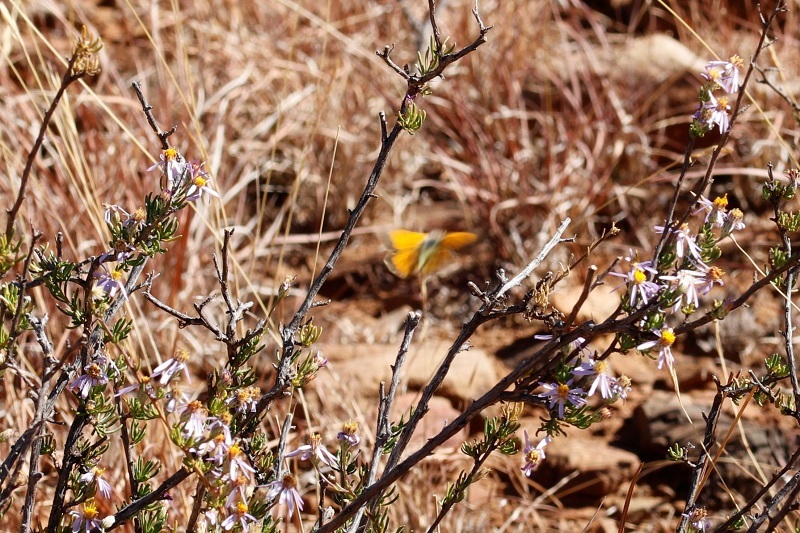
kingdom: Animalia
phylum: Arthropoda
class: Insecta
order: Lepidoptera
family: Pieridae
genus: Colias
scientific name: Colias electo
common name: African clouded yellow
